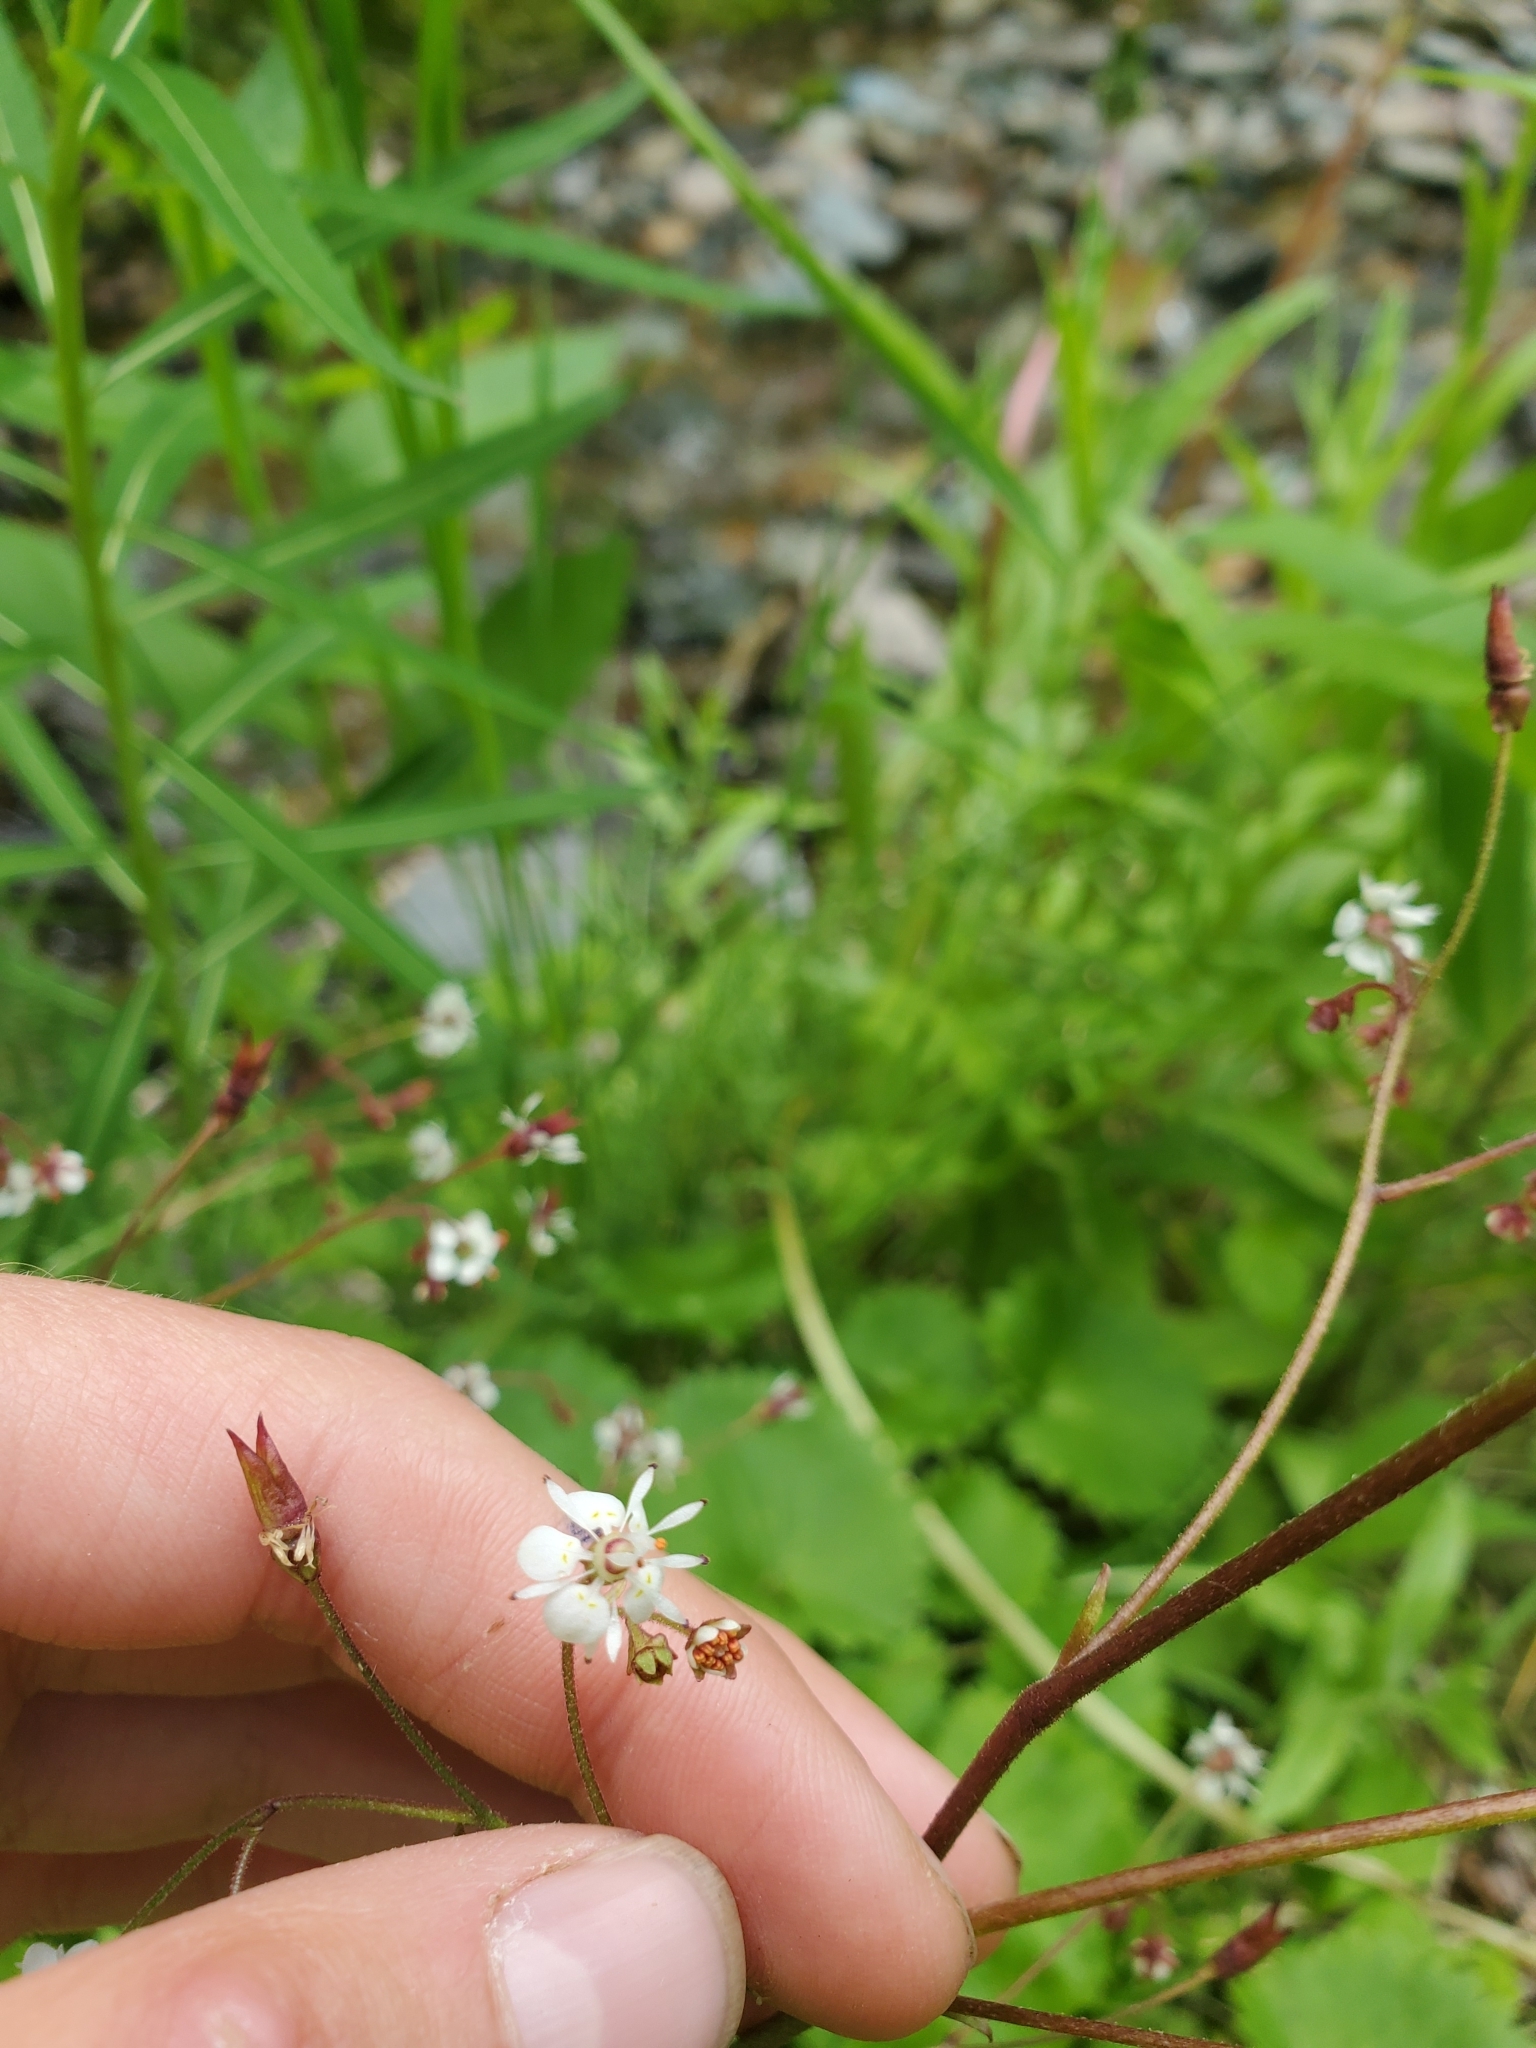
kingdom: Plantae
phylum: Tracheophyta
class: Magnoliopsida
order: Saxifragales
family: Saxifragaceae
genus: Micranthes
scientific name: Micranthes odontoloma
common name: Brook saxifrage
